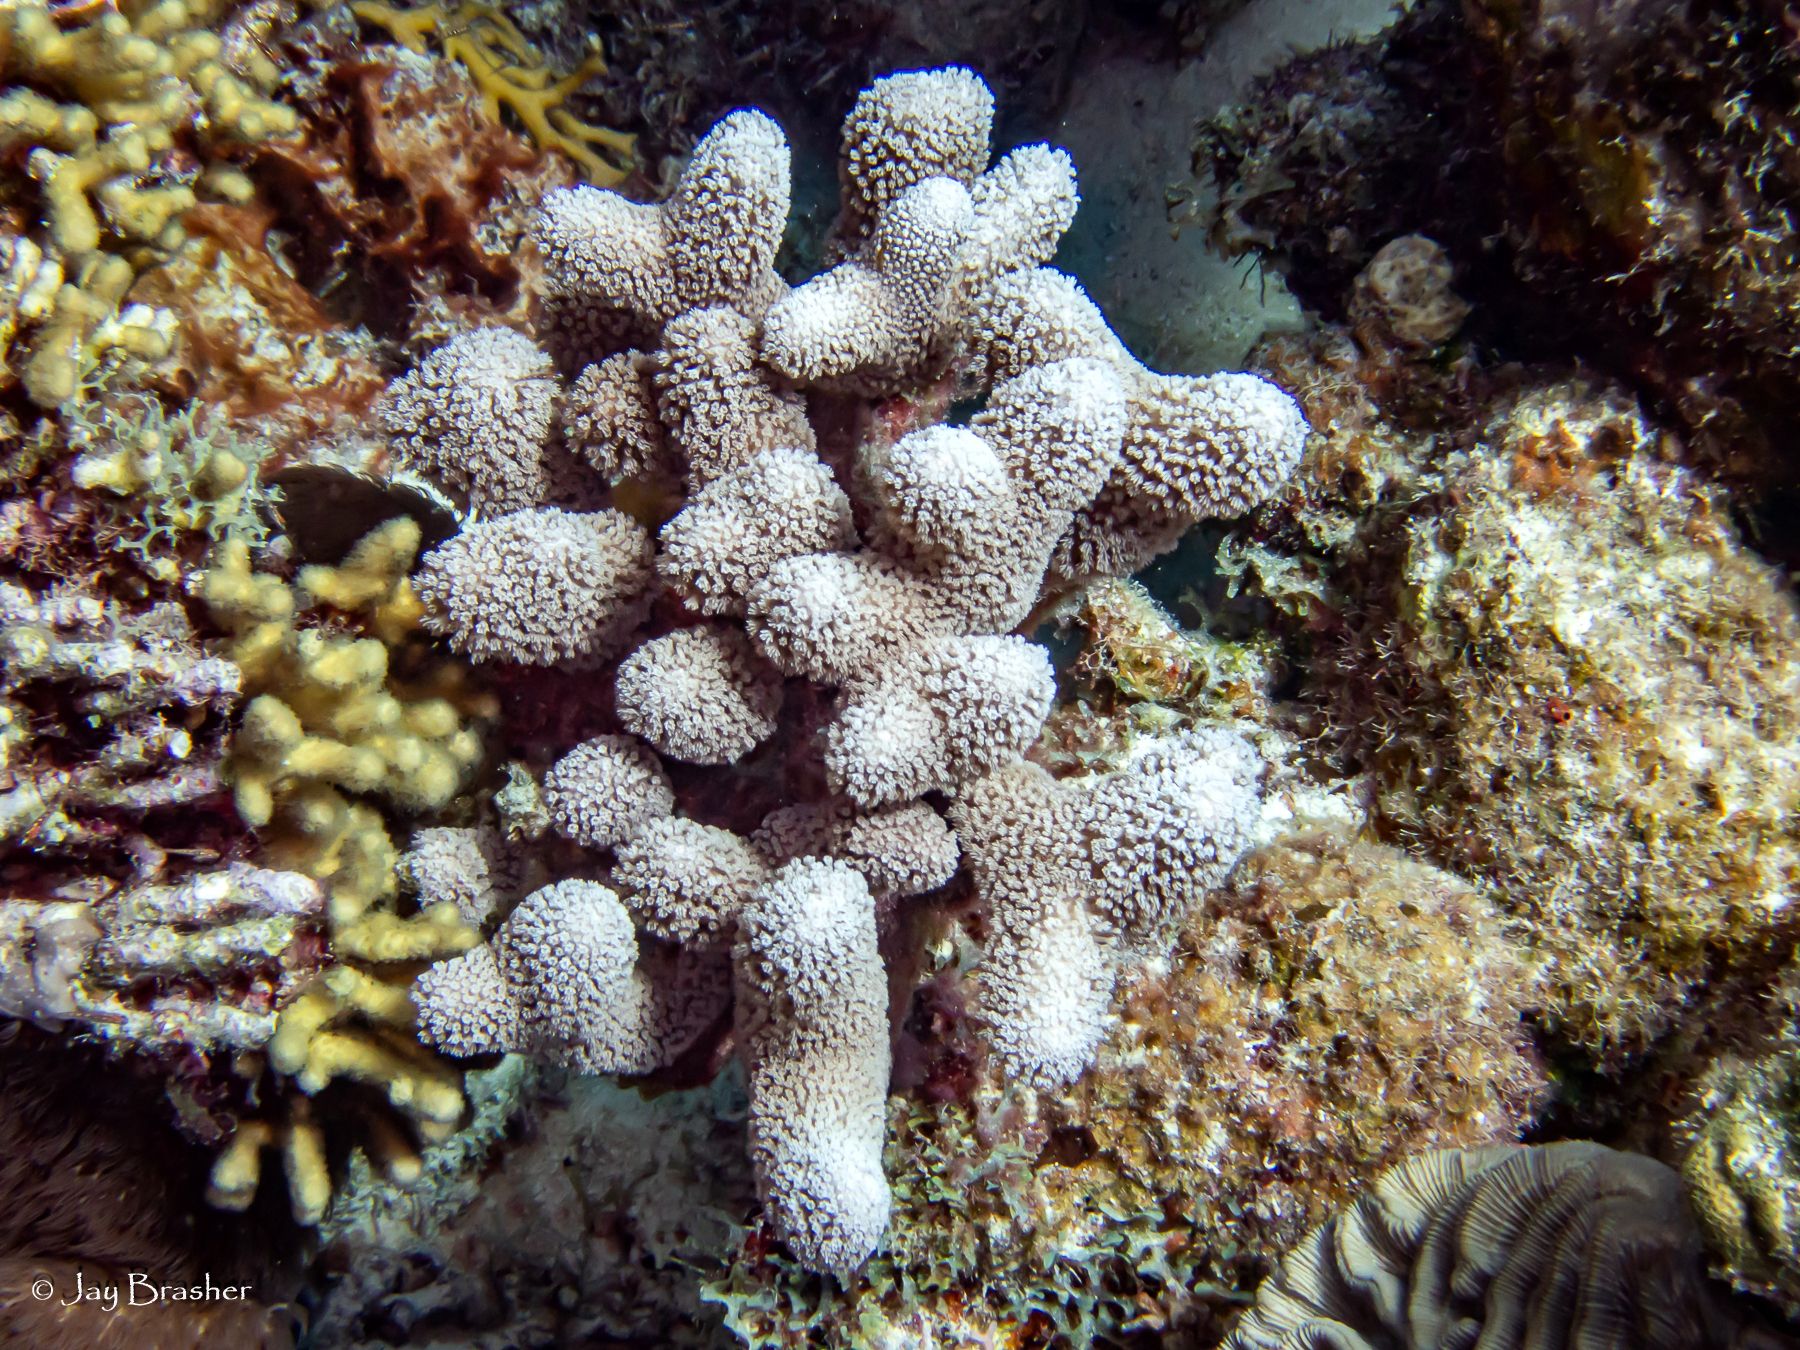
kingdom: Animalia
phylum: Cnidaria
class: Anthozoa
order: Scleractinia
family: Poritidae
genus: Porites
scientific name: Porites porites
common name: Finger coral
